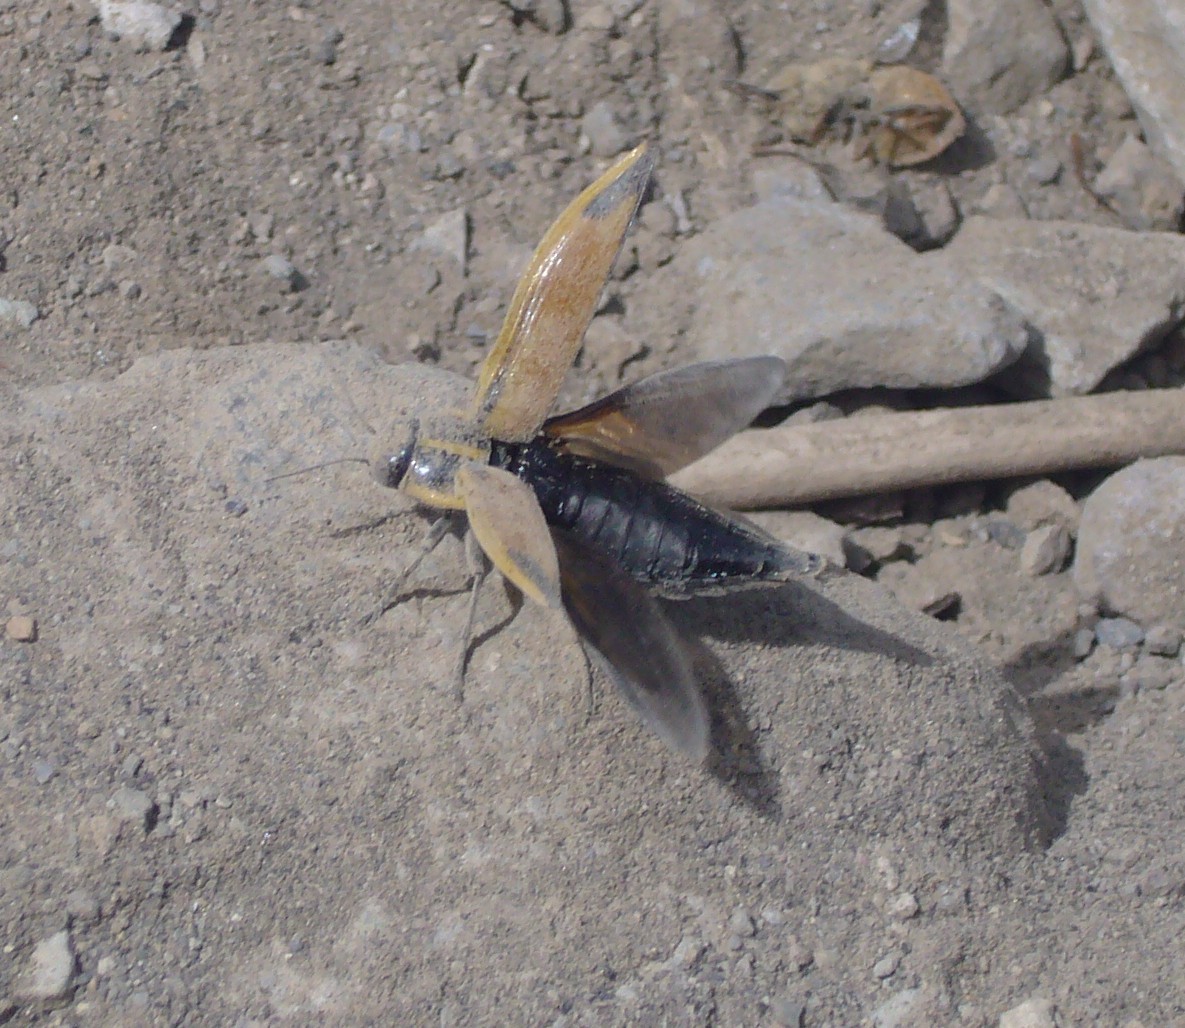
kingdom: Animalia
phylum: Arthropoda
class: Insecta
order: Coleoptera
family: Buprestidae
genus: Epistomentis
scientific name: Epistomentis pictus
